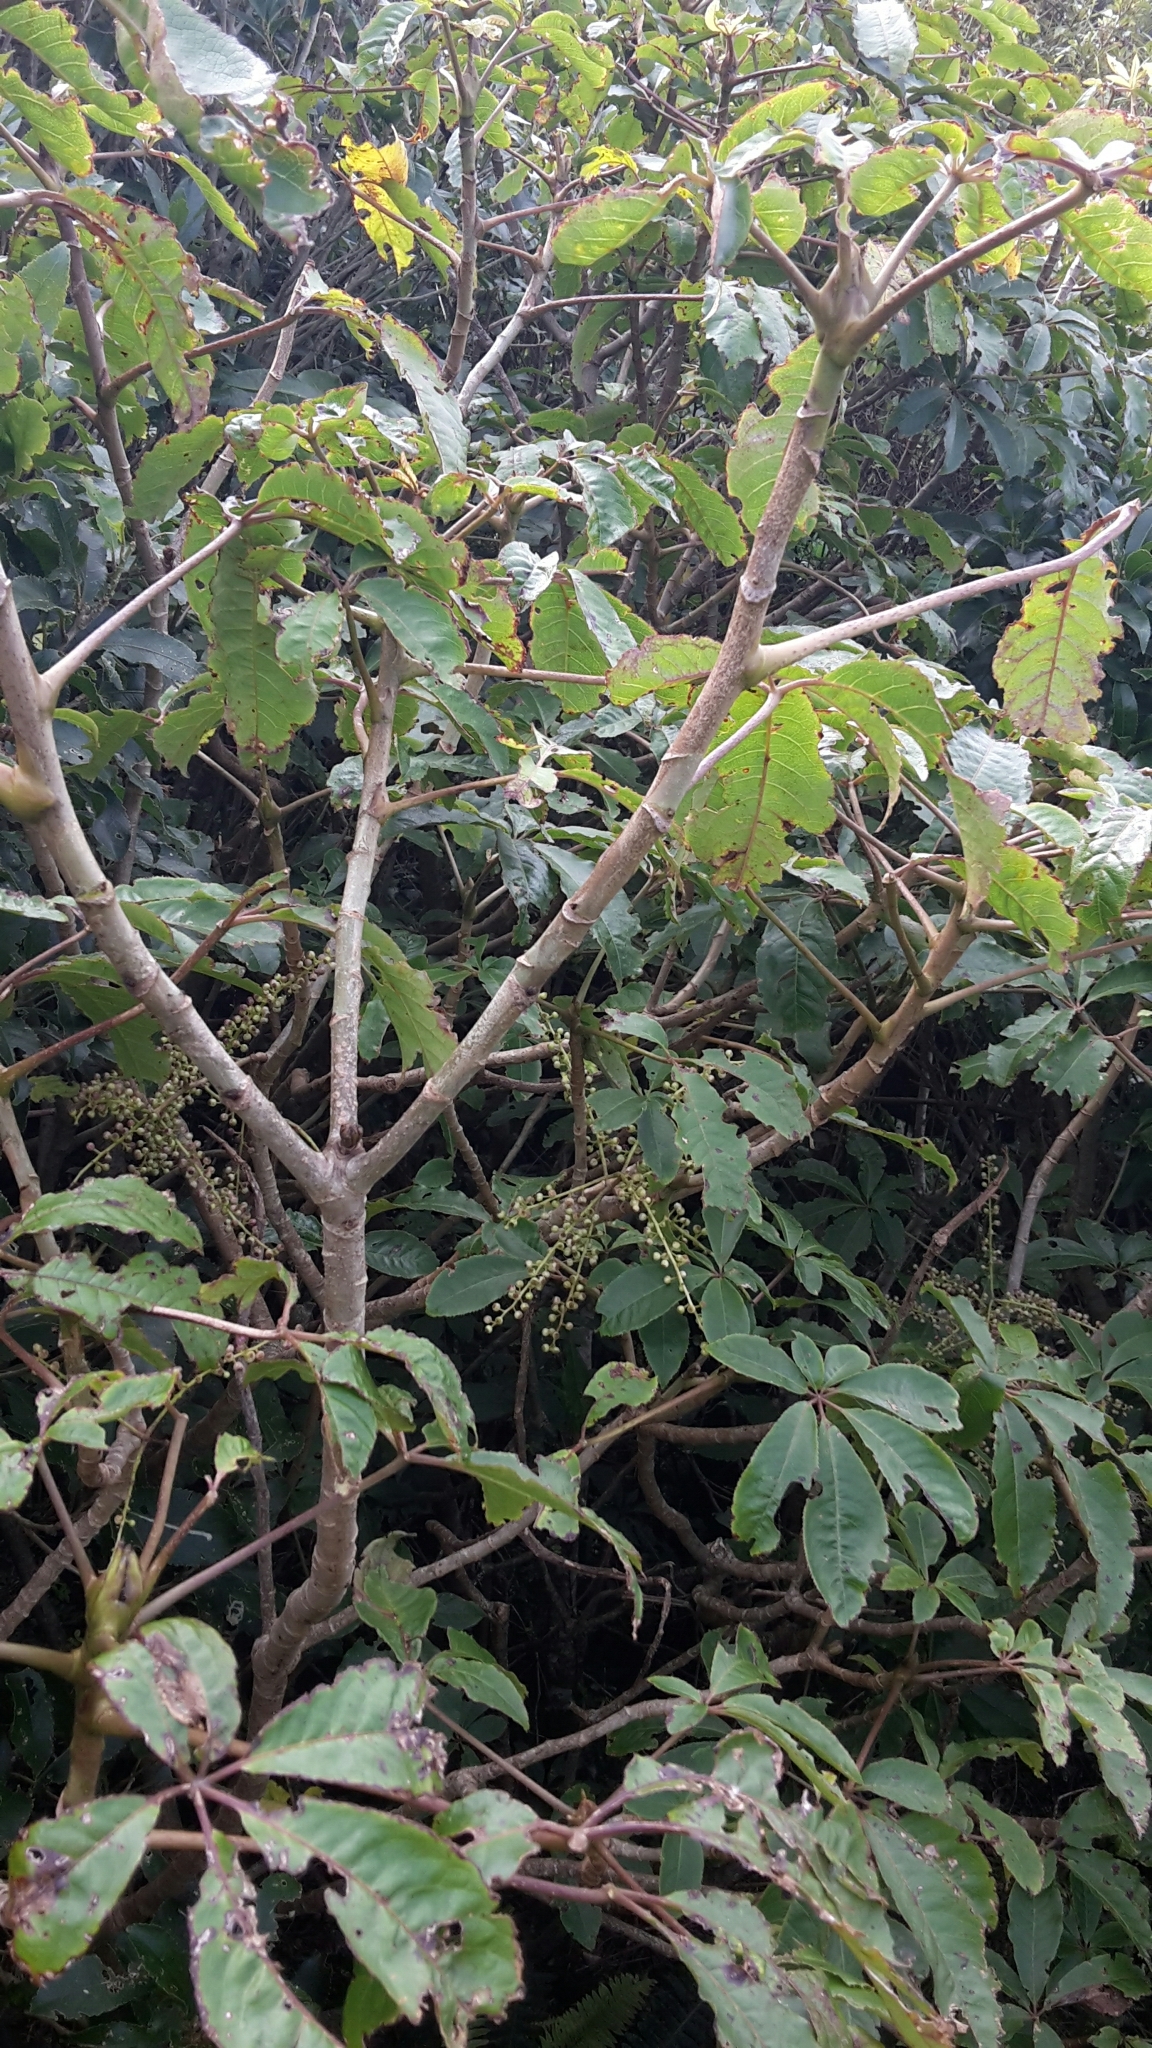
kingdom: Plantae
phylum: Tracheophyta
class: Magnoliopsida
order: Apiales
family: Araliaceae
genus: Schefflera
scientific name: Schefflera digitata
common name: Pate
